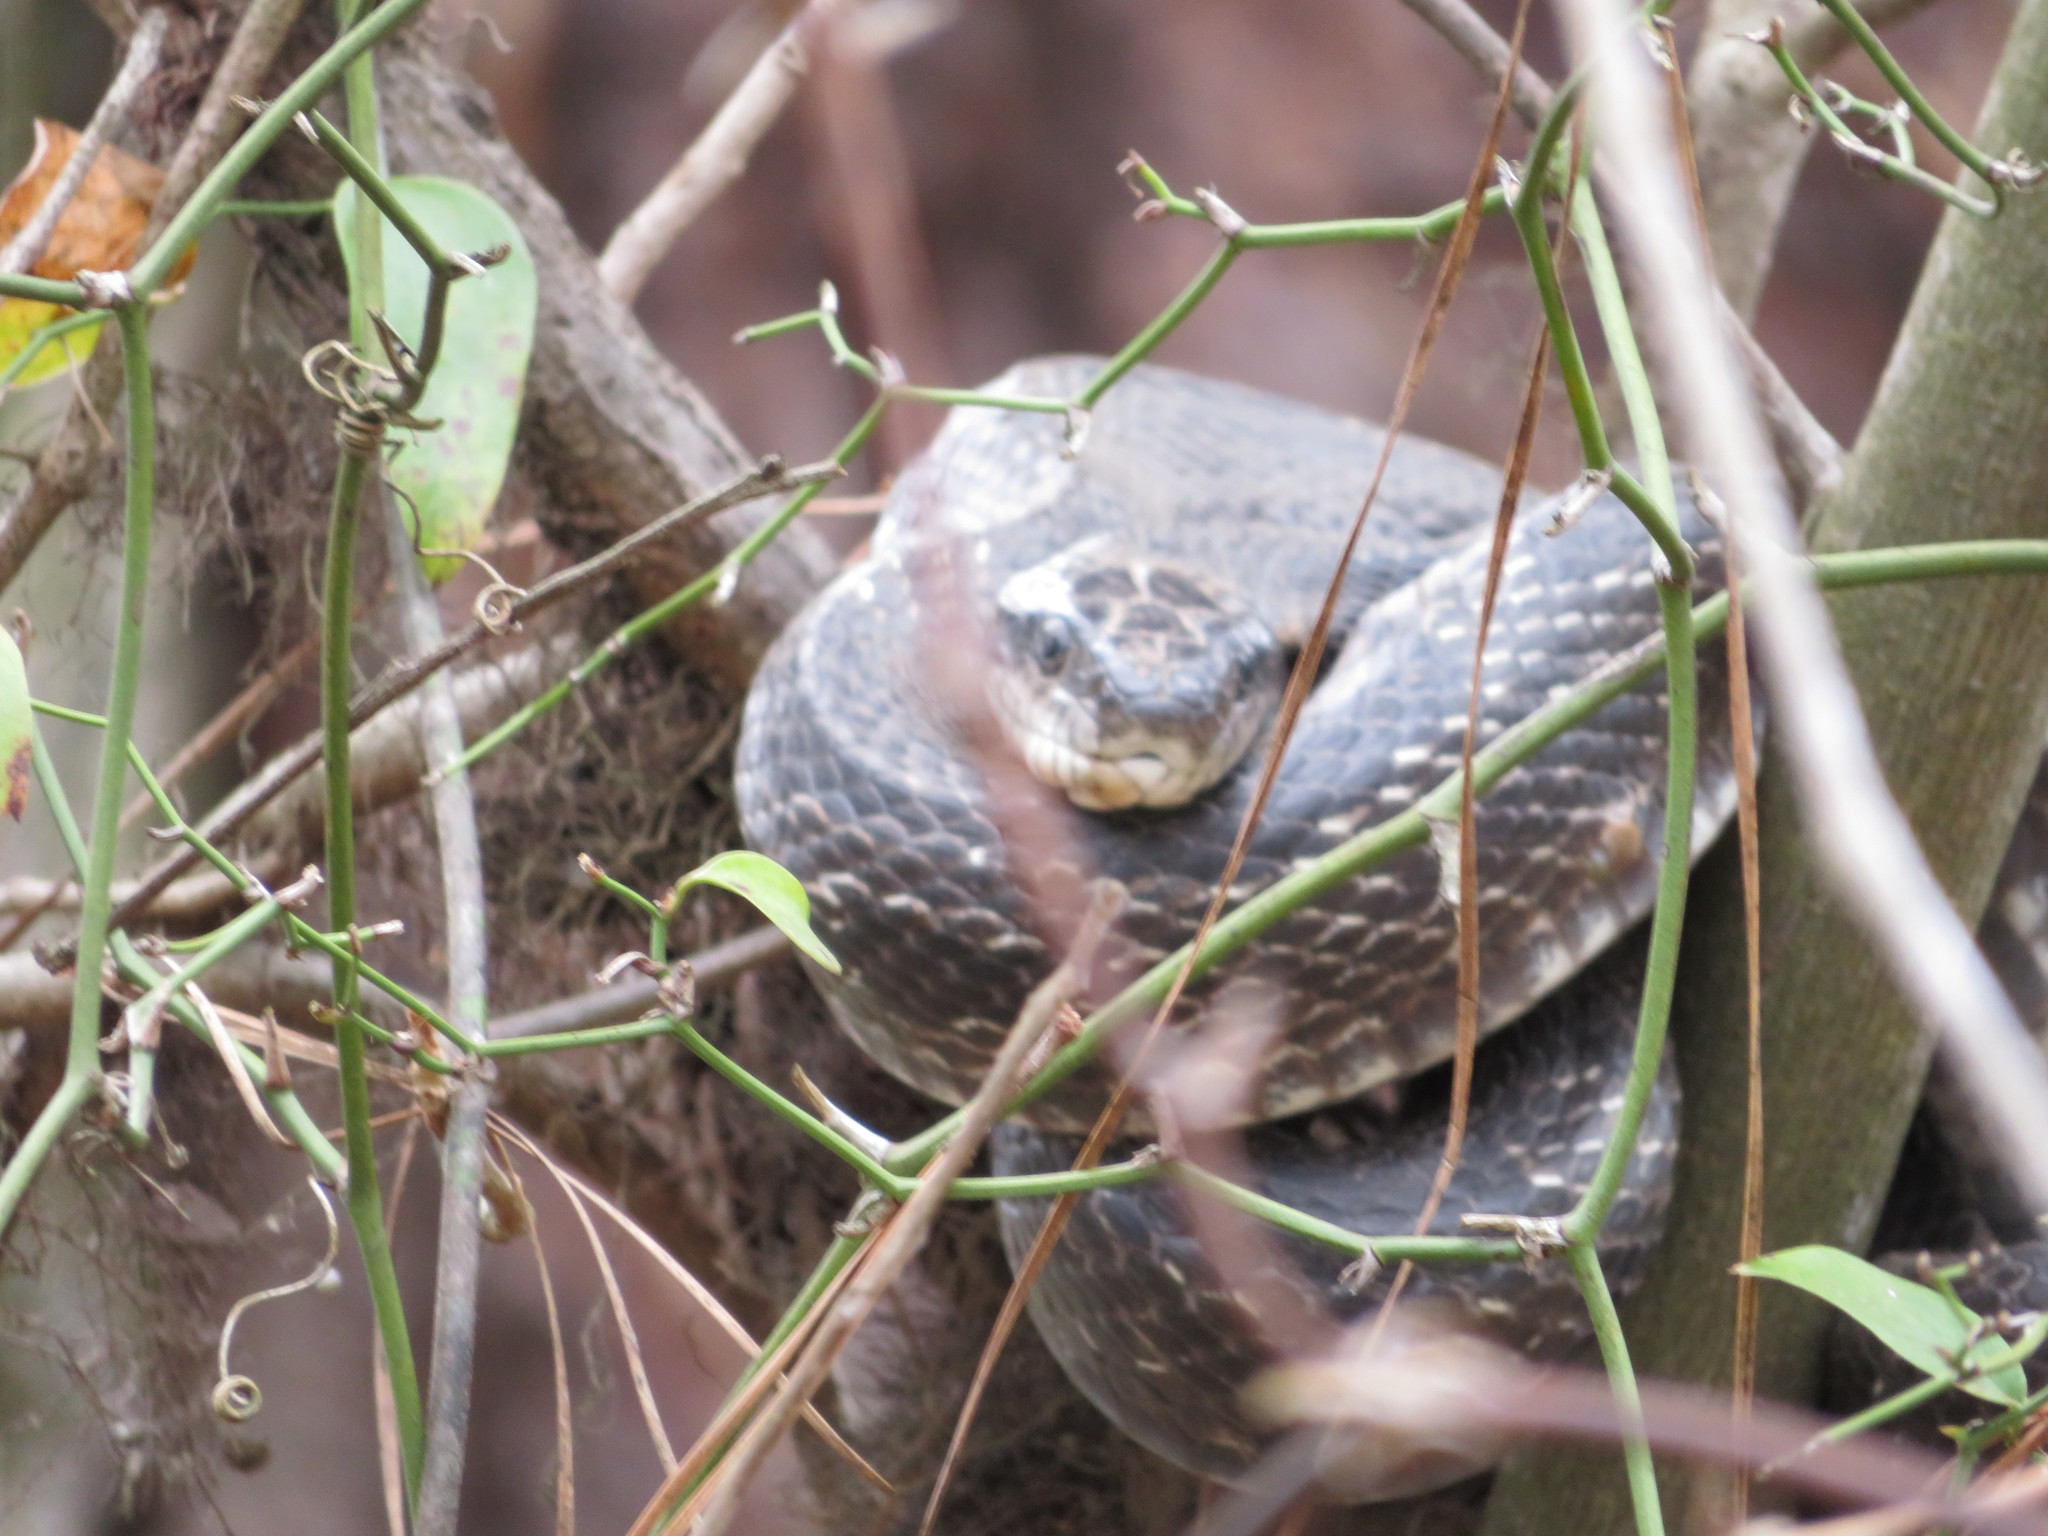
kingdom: Animalia
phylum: Chordata
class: Squamata
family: Colubridae
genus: Pantherophis
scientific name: Pantherophis alleghaniensis
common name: Eastern rat snake
